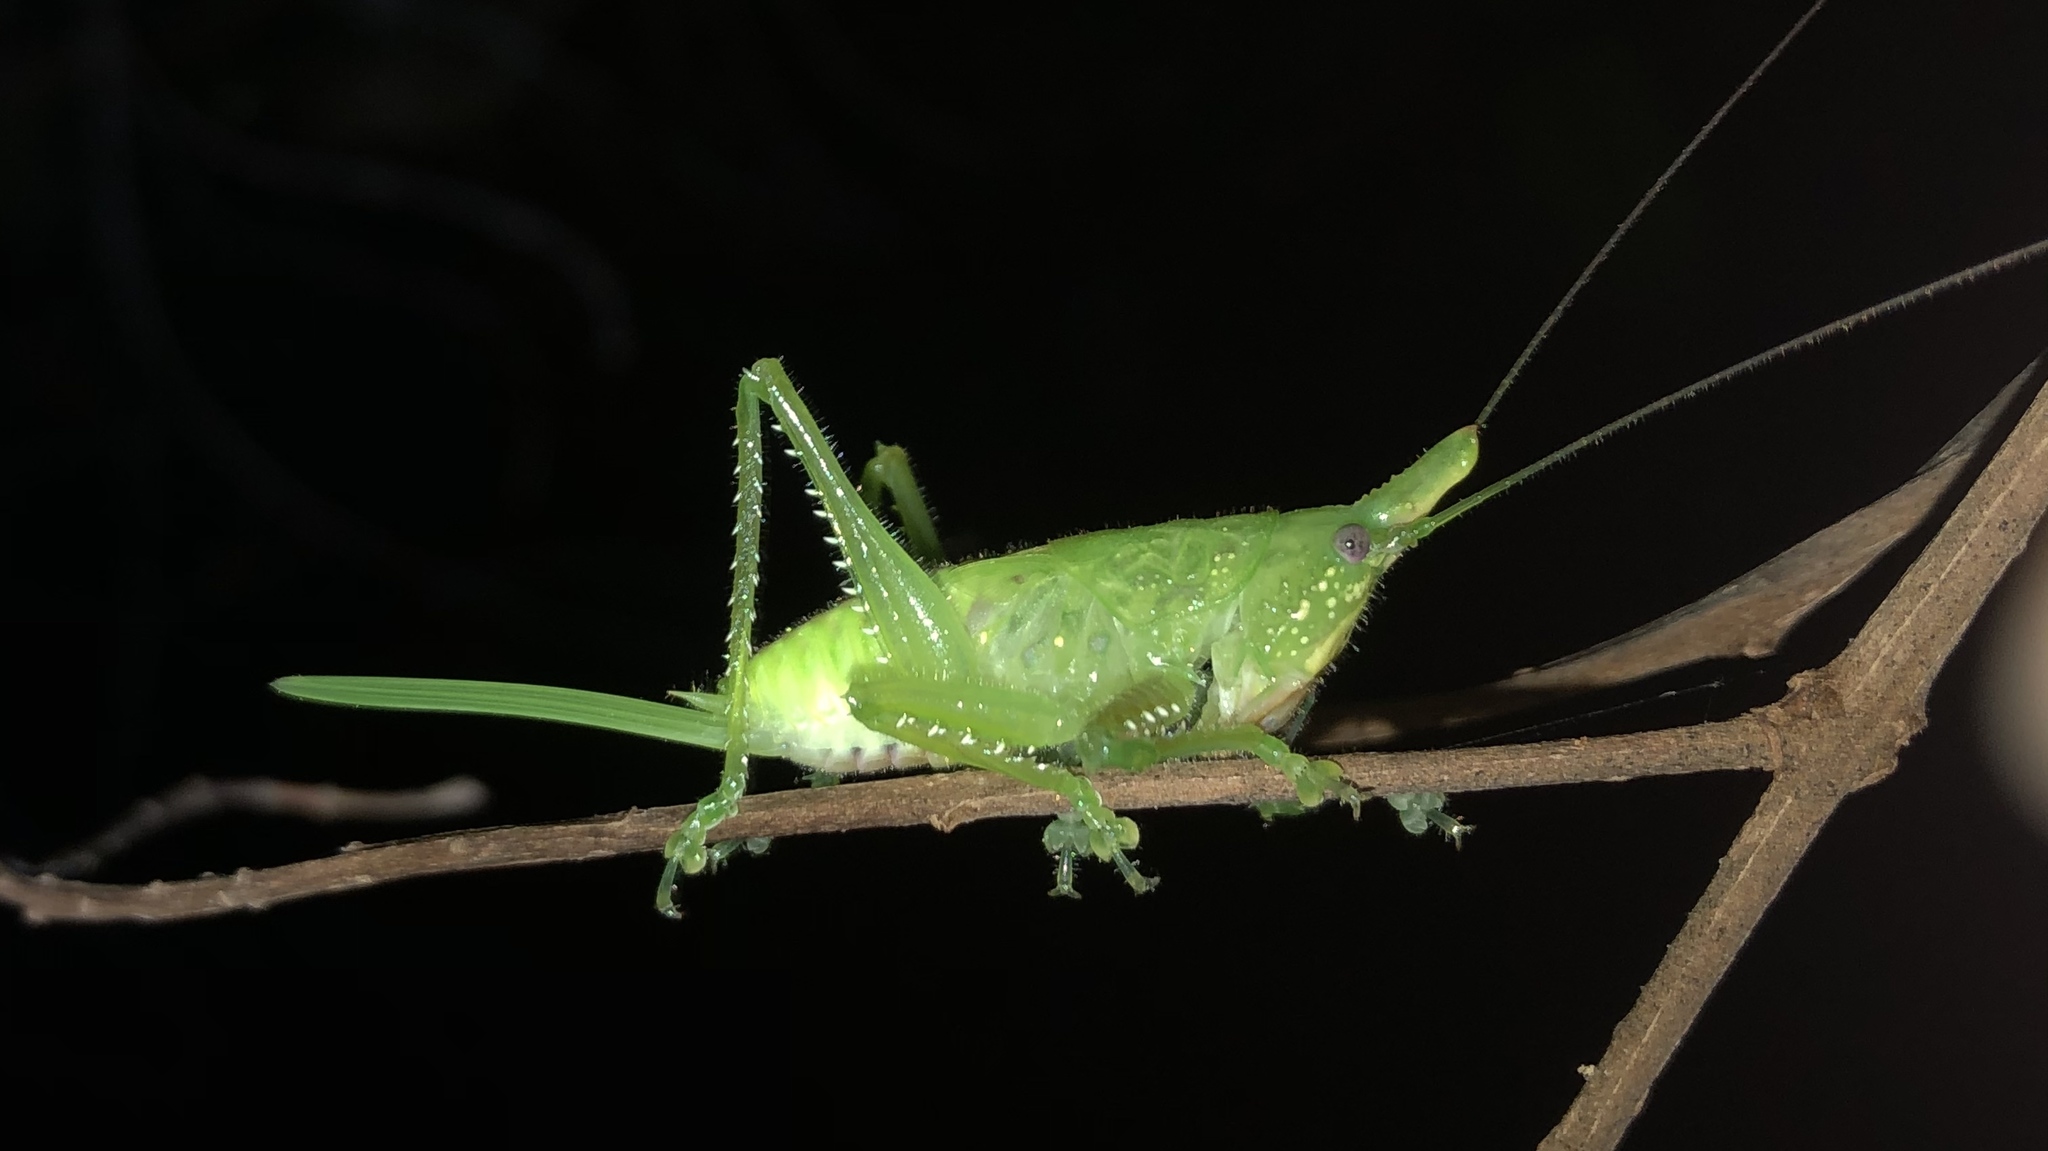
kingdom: Animalia
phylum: Arthropoda
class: Insecta
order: Orthoptera
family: Tettigoniidae
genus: Copiphora
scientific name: Copiphora cultricornis
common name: Yellow-faced spear bearer
